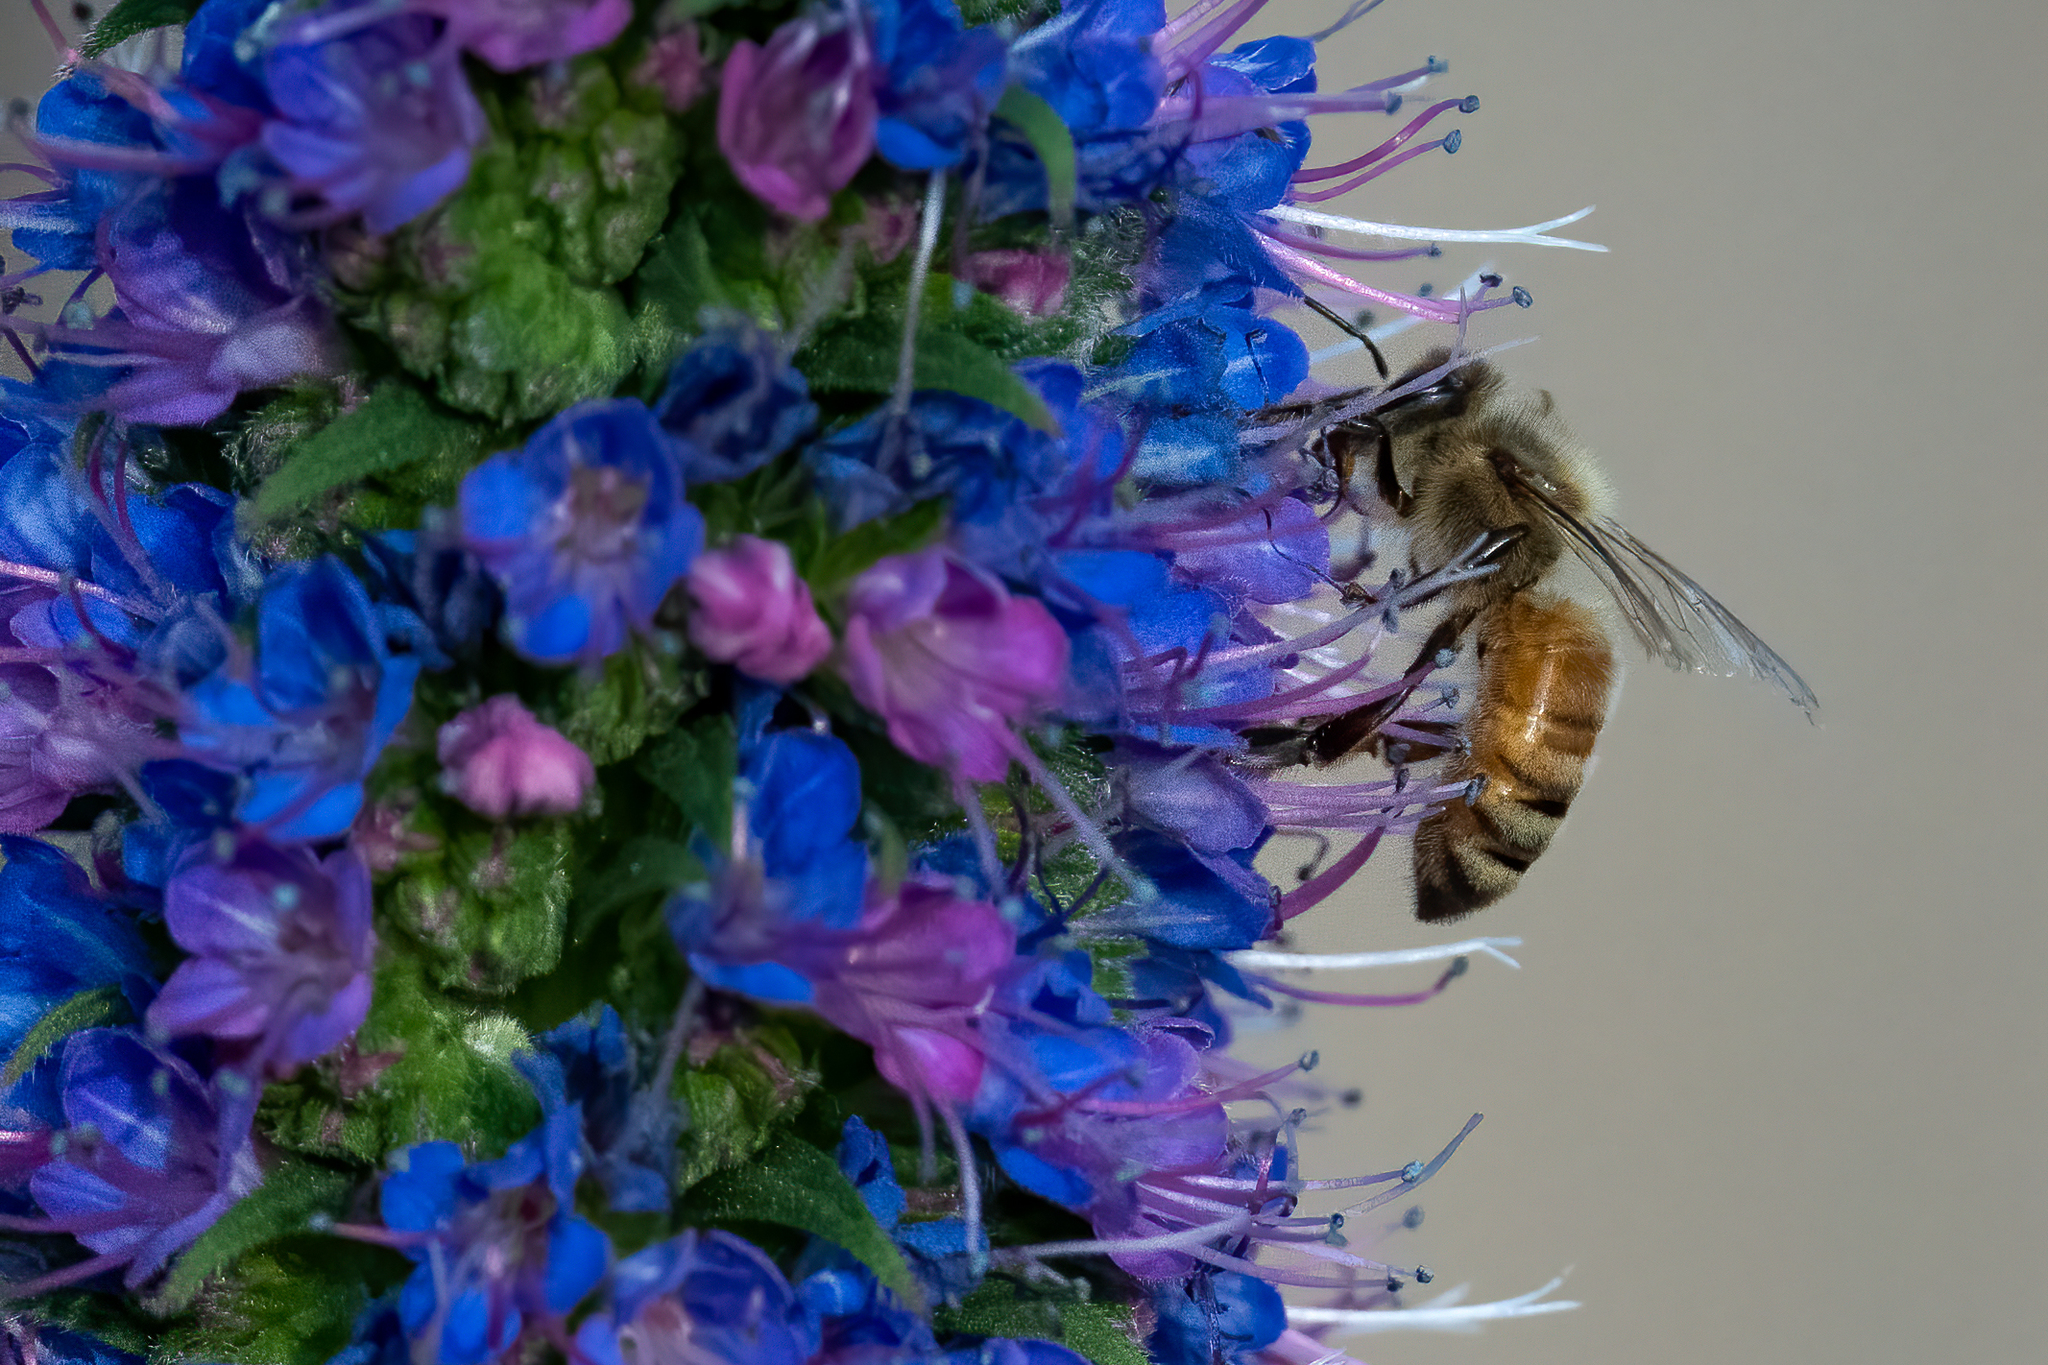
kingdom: Animalia
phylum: Arthropoda
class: Insecta
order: Hymenoptera
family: Apidae
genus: Apis
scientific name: Apis mellifera
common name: Honey bee
